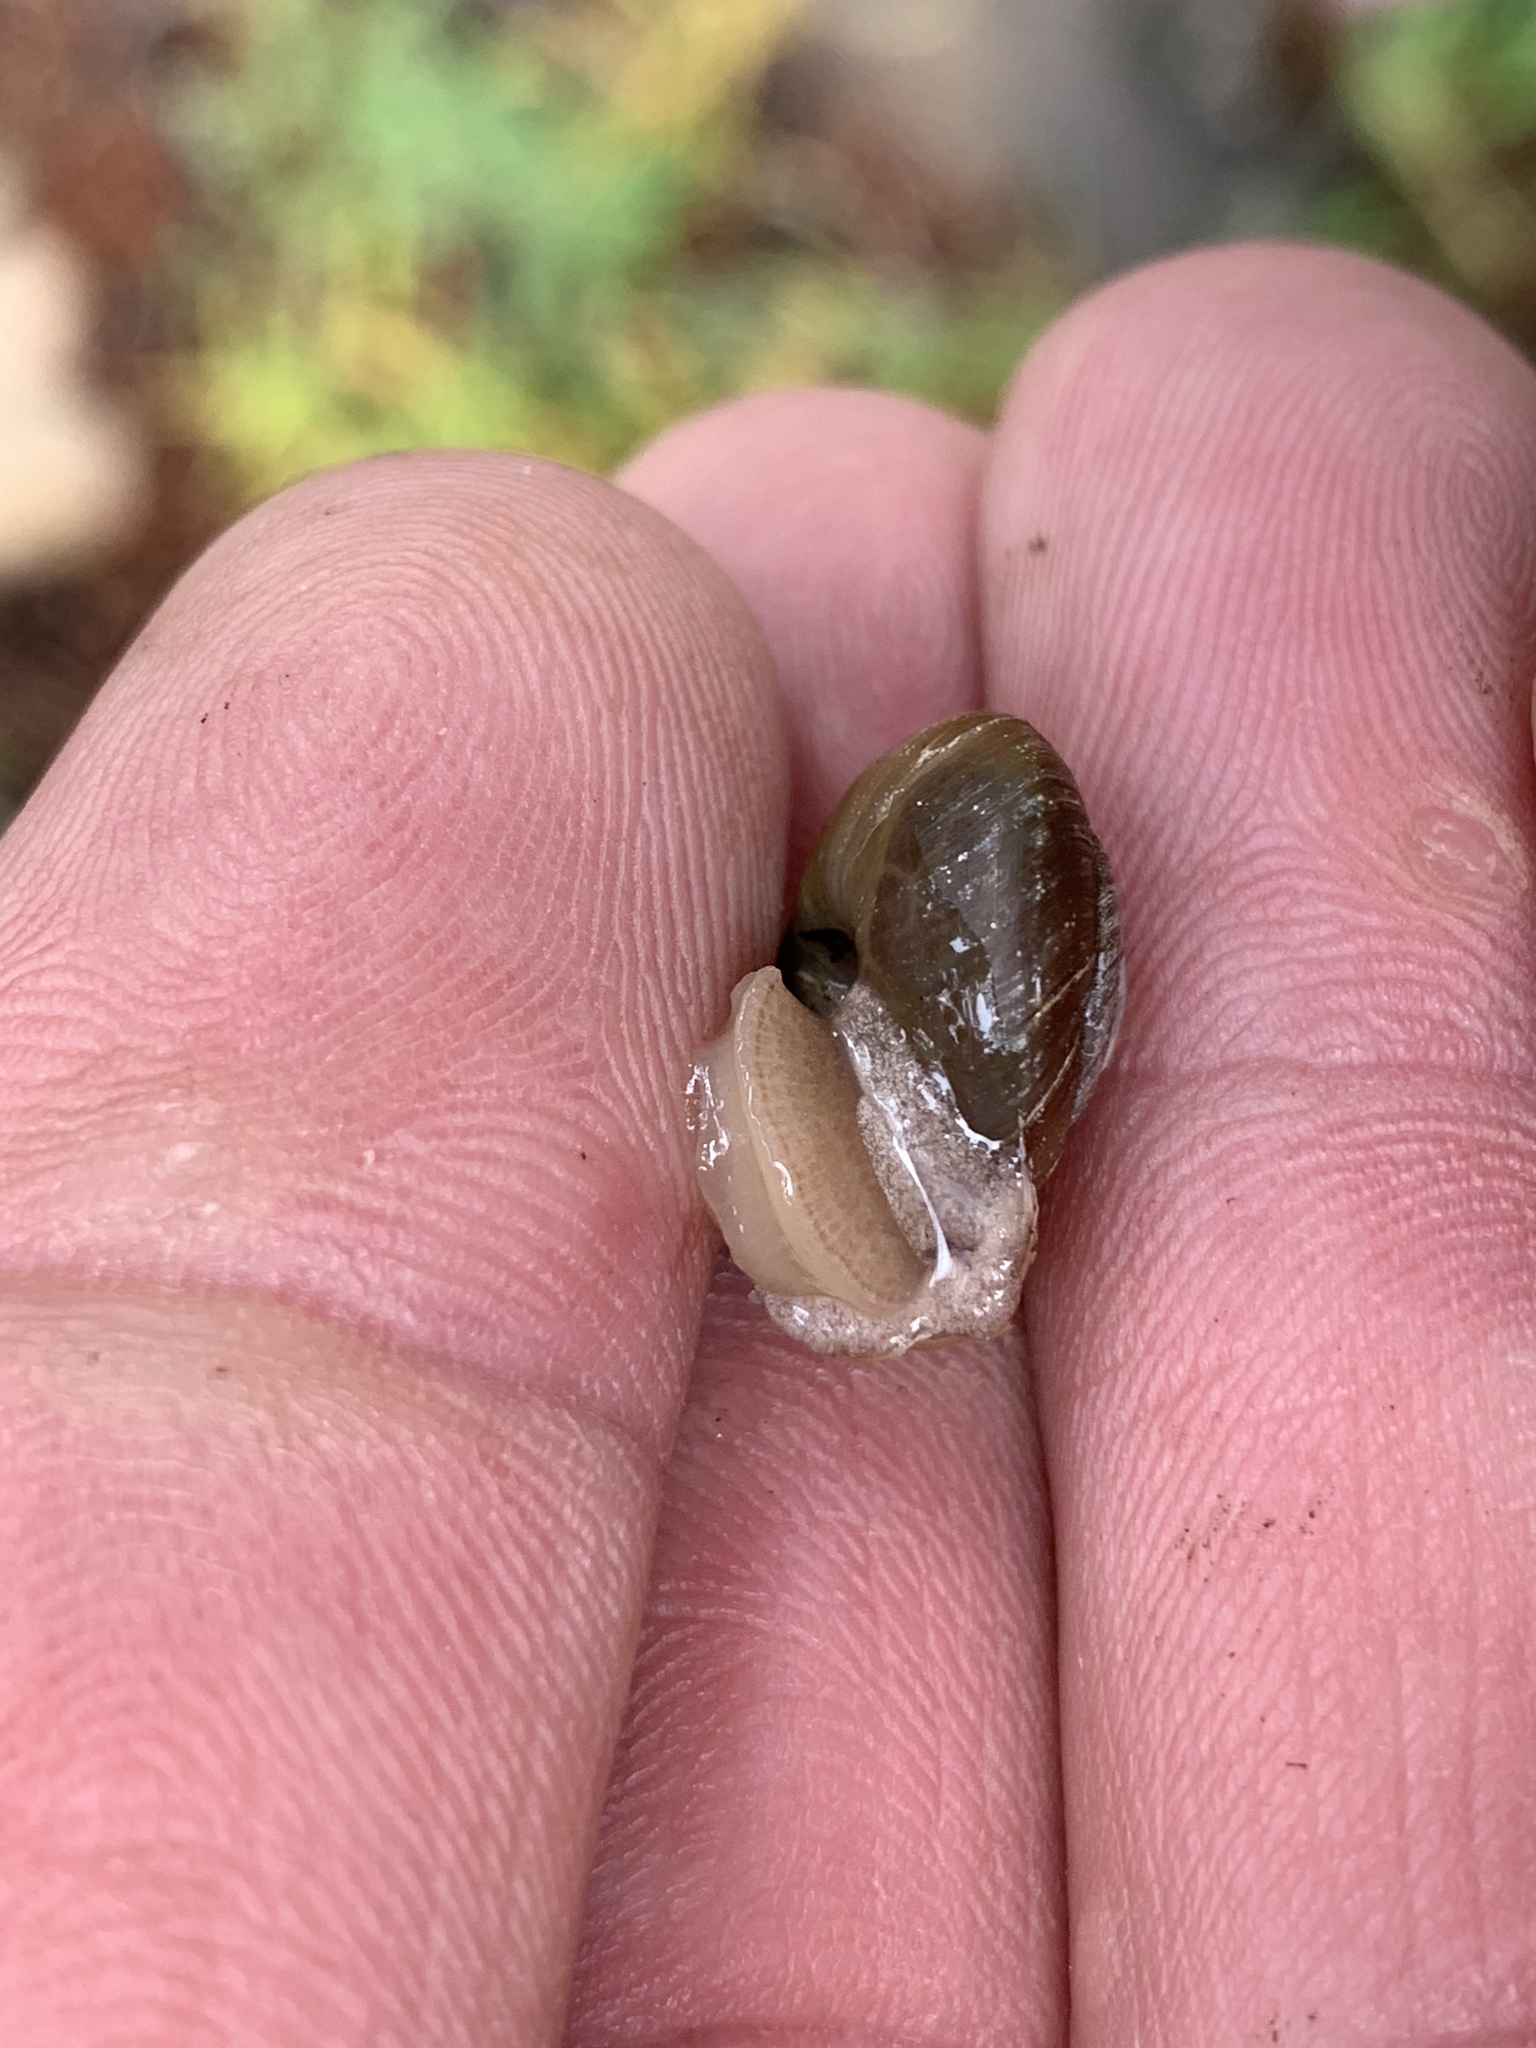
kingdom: Animalia
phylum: Mollusca
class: Gastropoda
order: Stylommatophora
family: Polygyridae
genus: Ashmunella
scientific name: Ashmunella rhyssa
